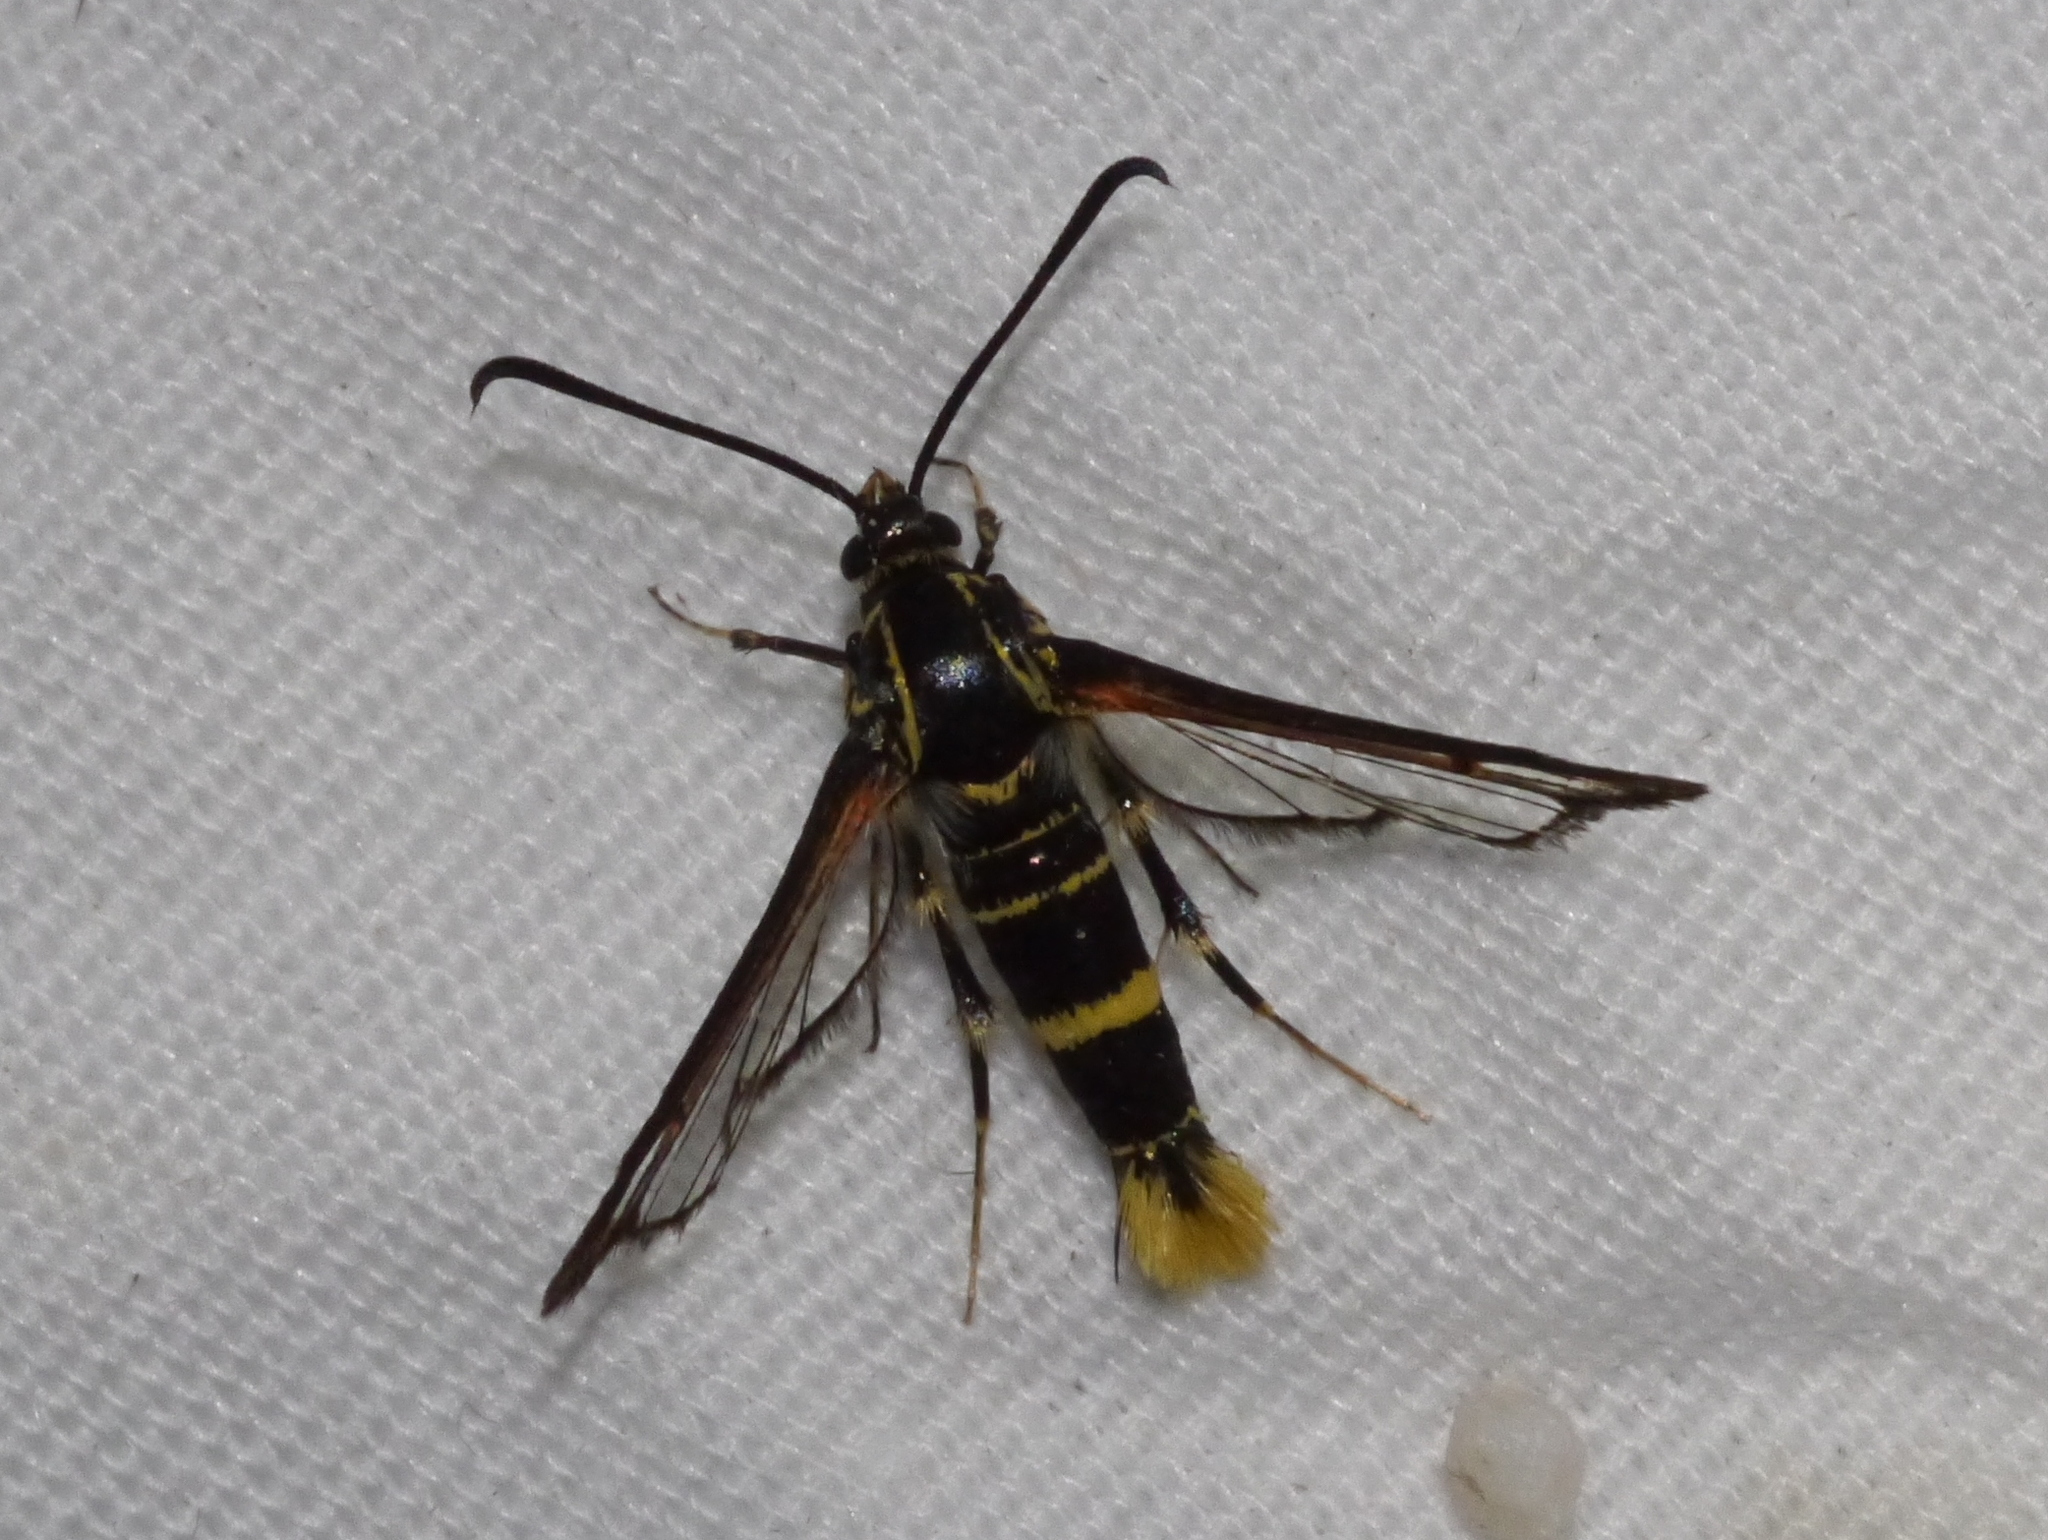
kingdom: Animalia
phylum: Arthropoda
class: Insecta
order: Lepidoptera
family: Sesiidae
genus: Carmenta
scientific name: Carmenta arizonae
